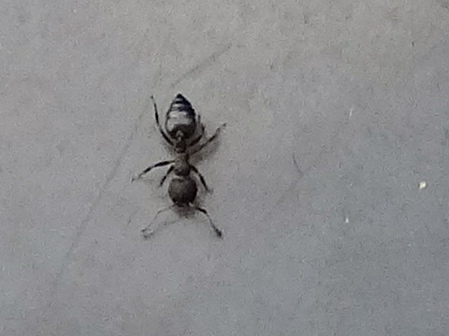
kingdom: Animalia
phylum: Arthropoda
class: Insecta
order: Hymenoptera
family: Formicidae
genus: Crematogaster
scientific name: Crematogaster
